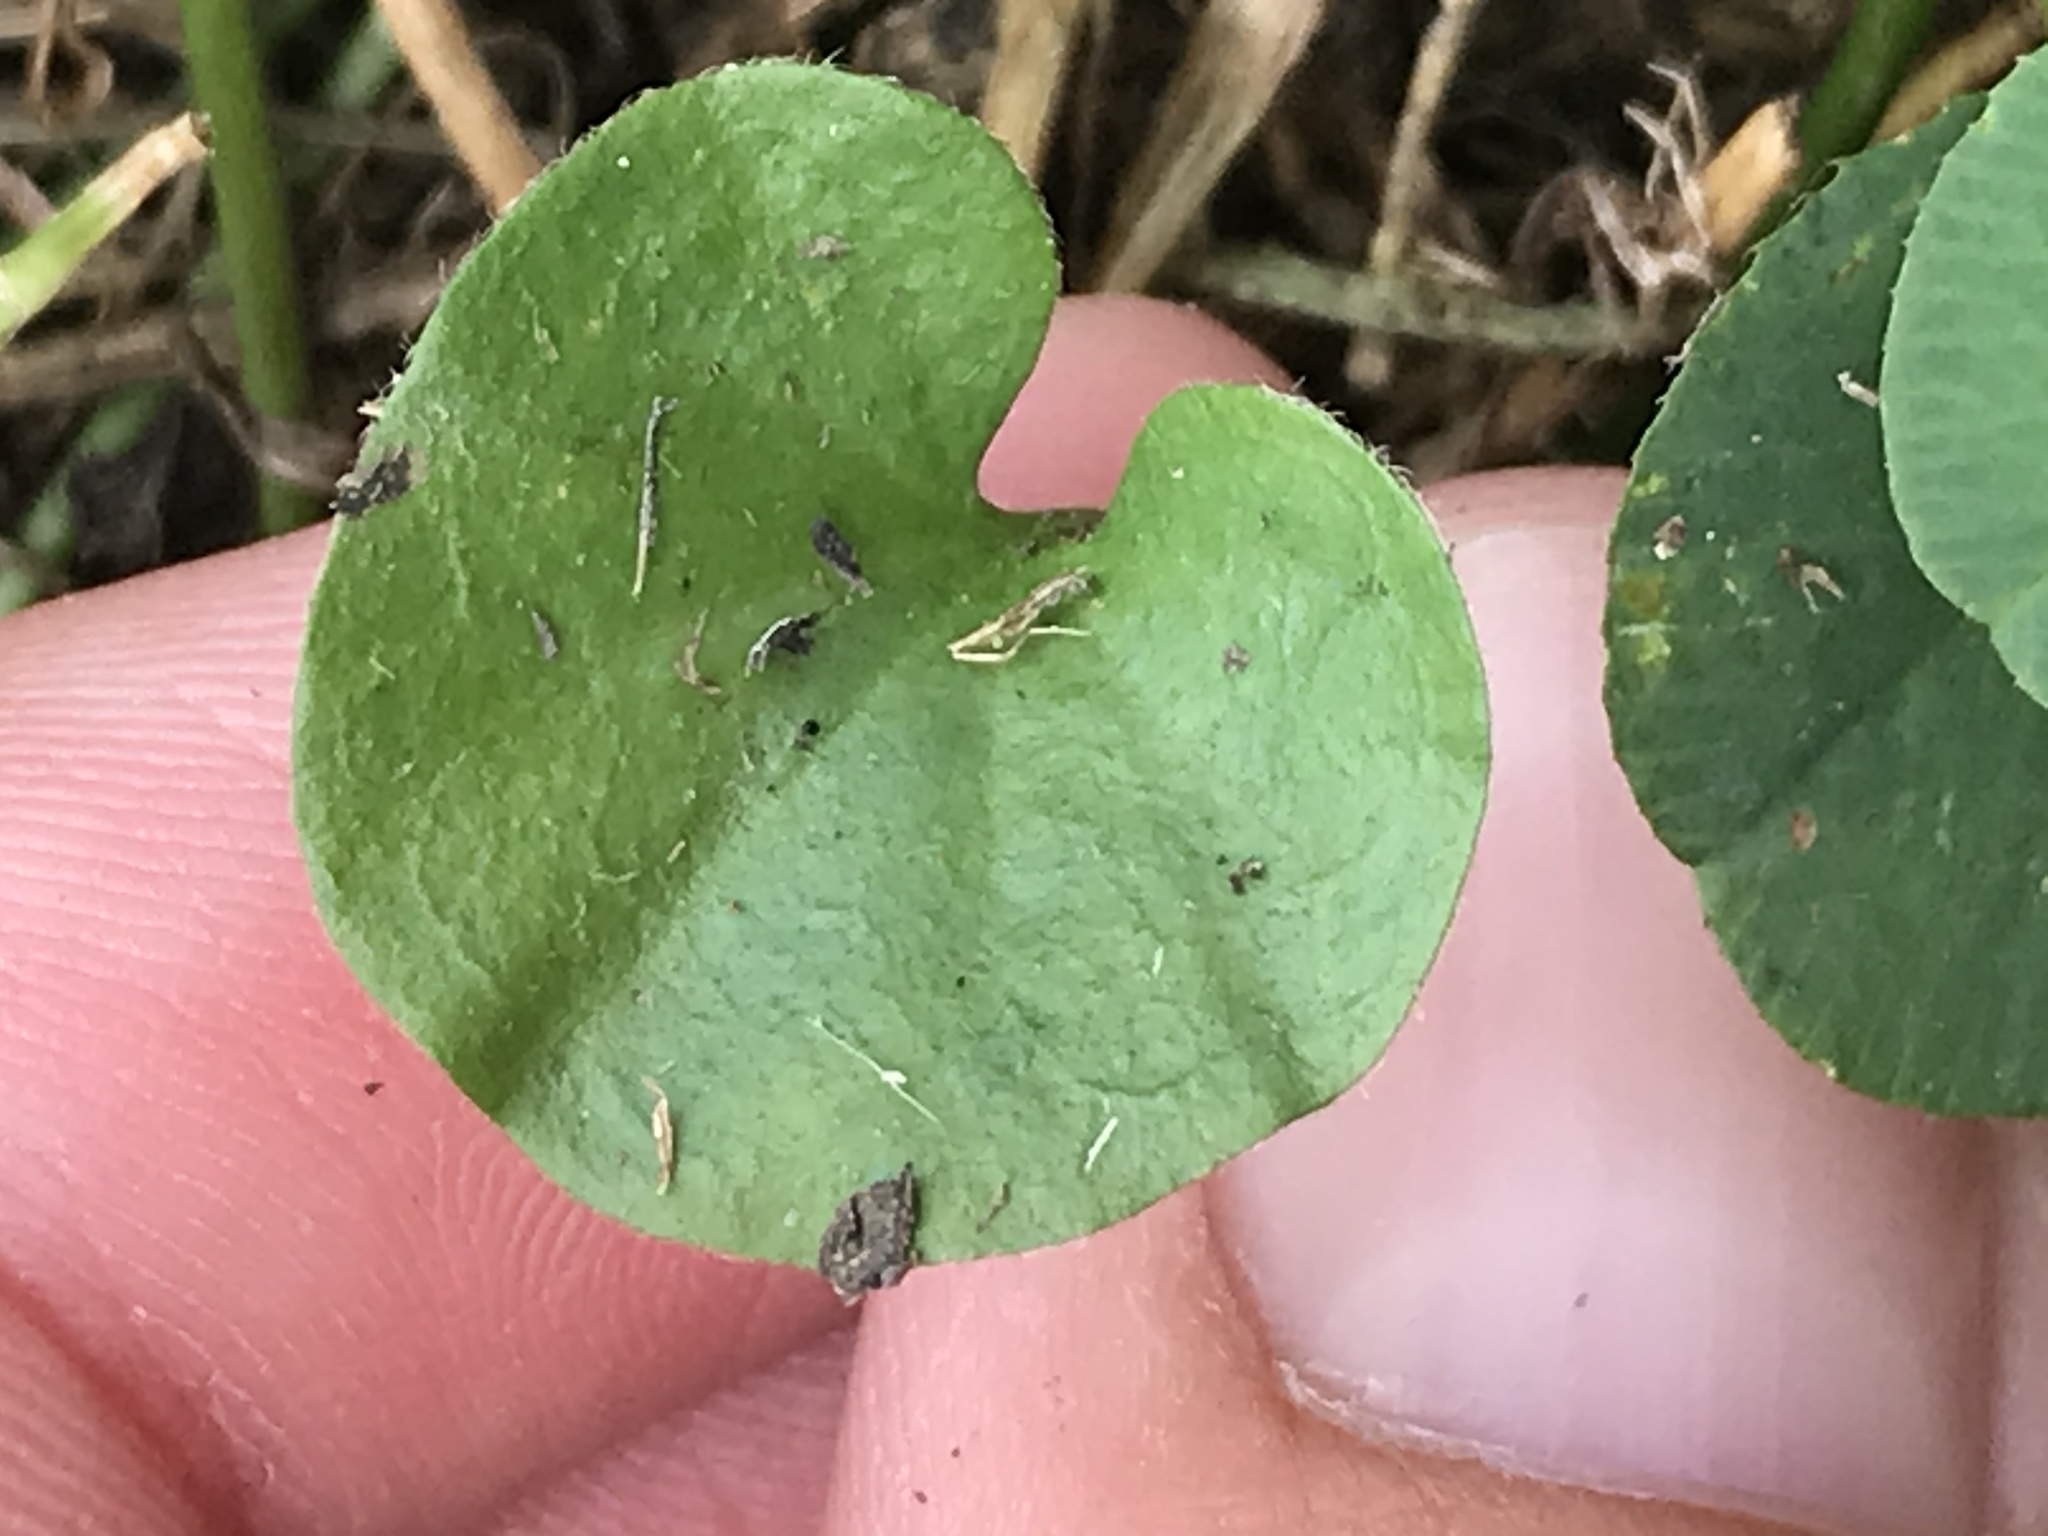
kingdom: Plantae
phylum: Tracheophyta
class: Magnoliopsida
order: Solanales
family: Convolvulaceae
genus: Dichondra
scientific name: Dichondra carolinensis
